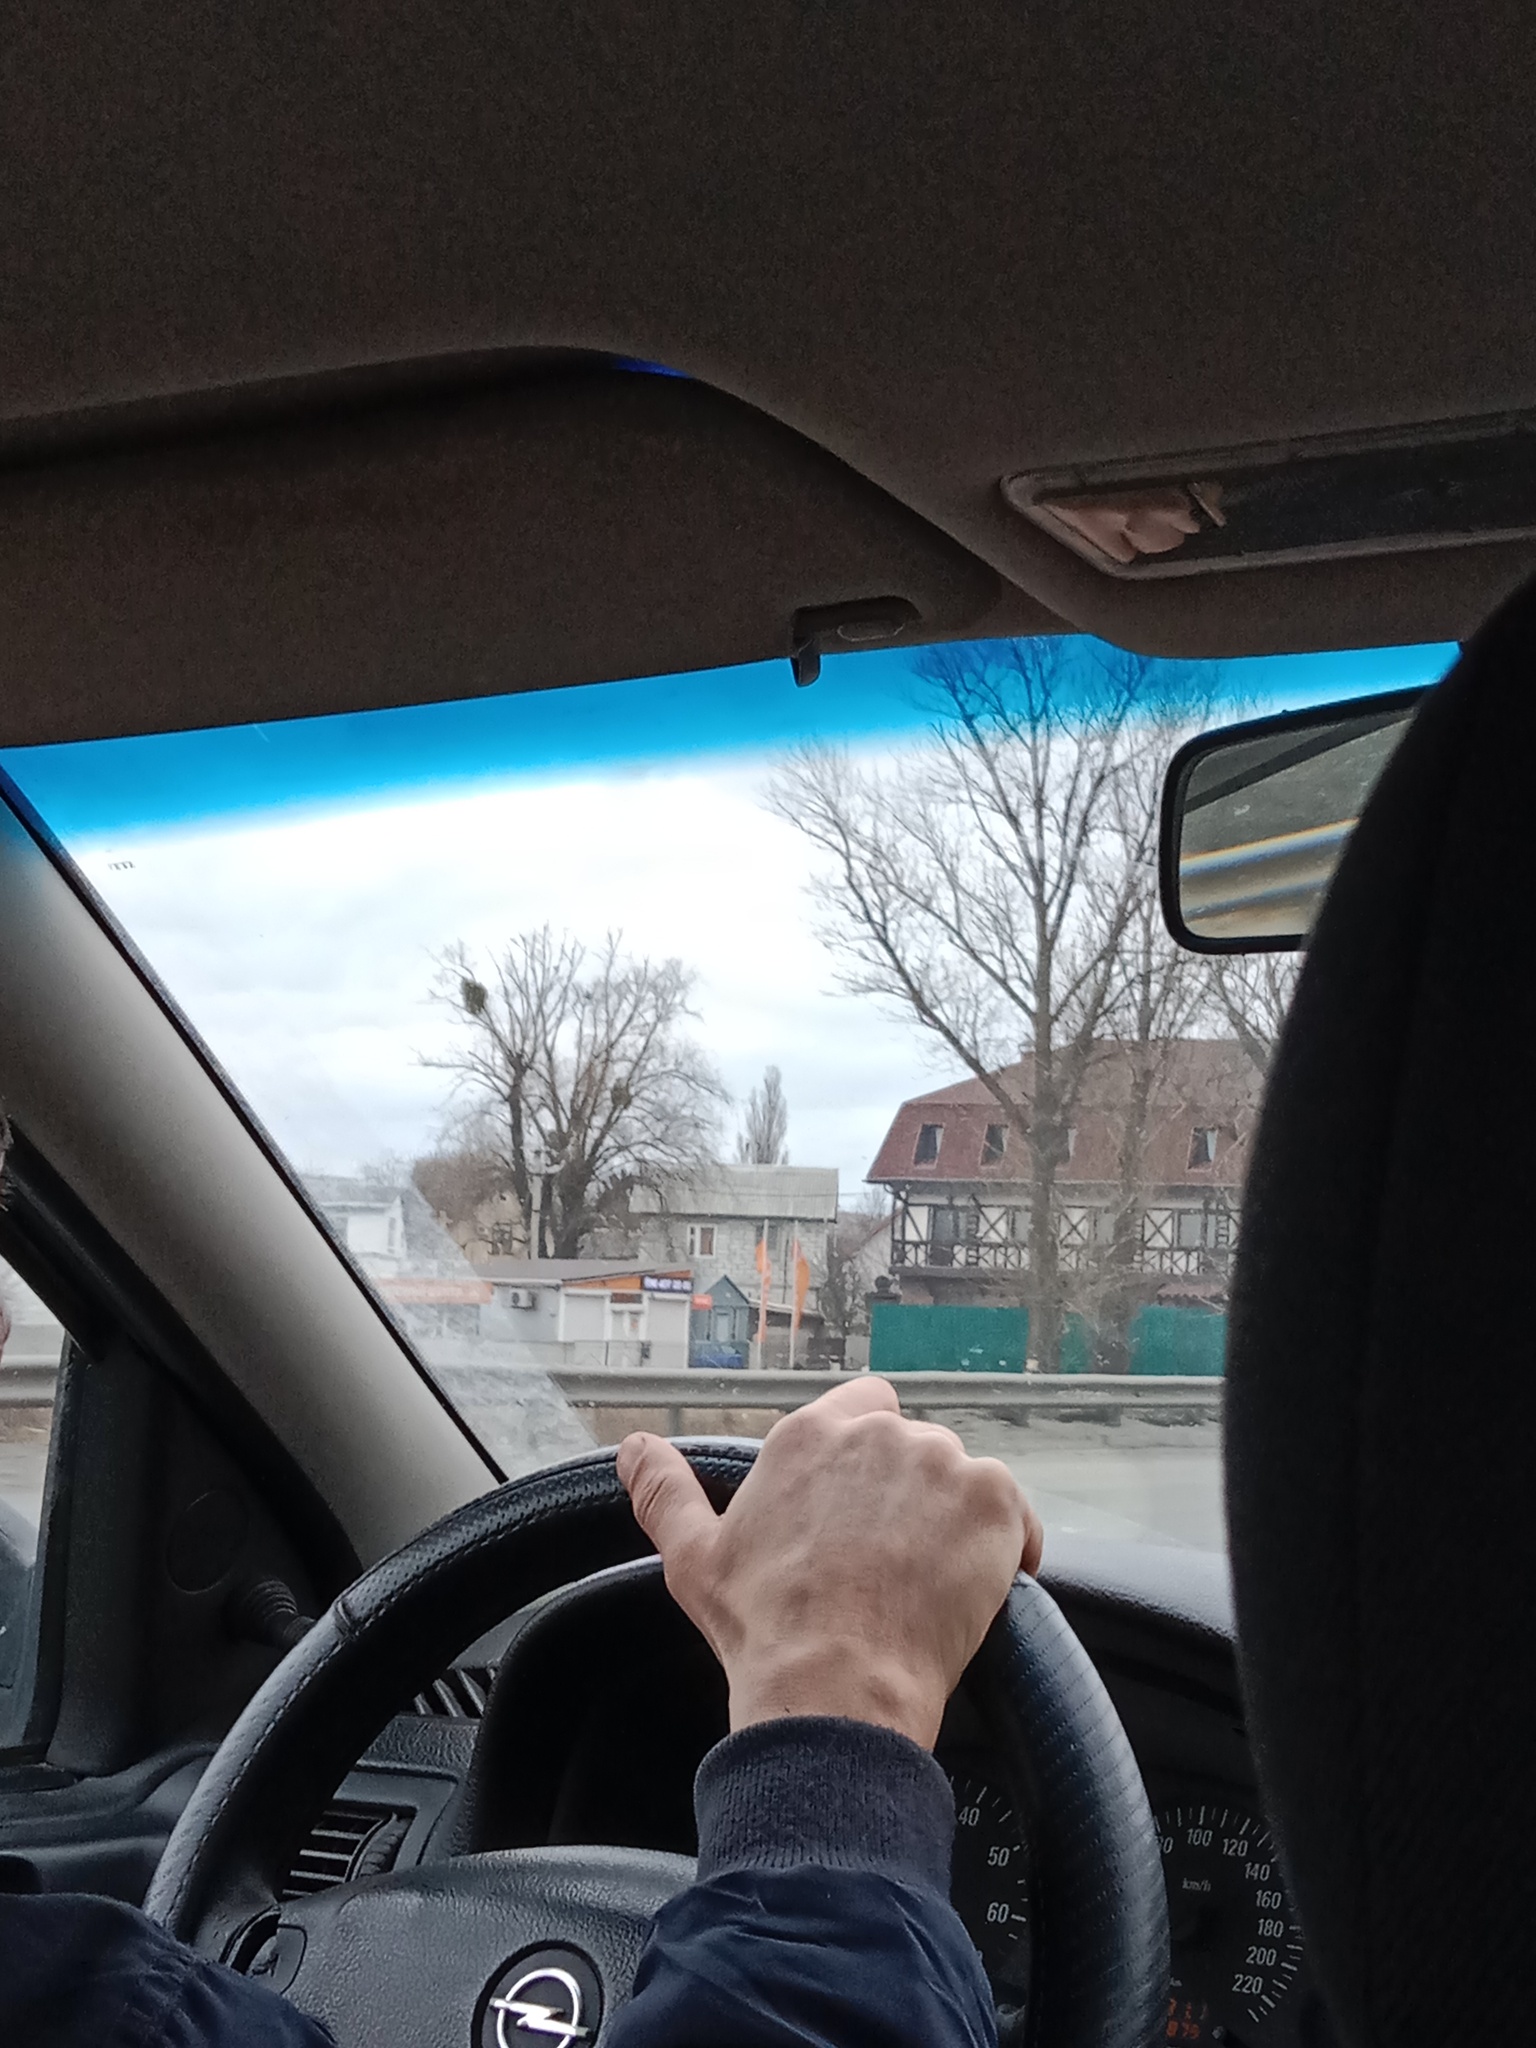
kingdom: Plantae
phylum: Tracheophyta
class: Magnoliopsida
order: Santalales
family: Viscaceae
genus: Viscum
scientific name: Viscum album
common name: Mistletoe
